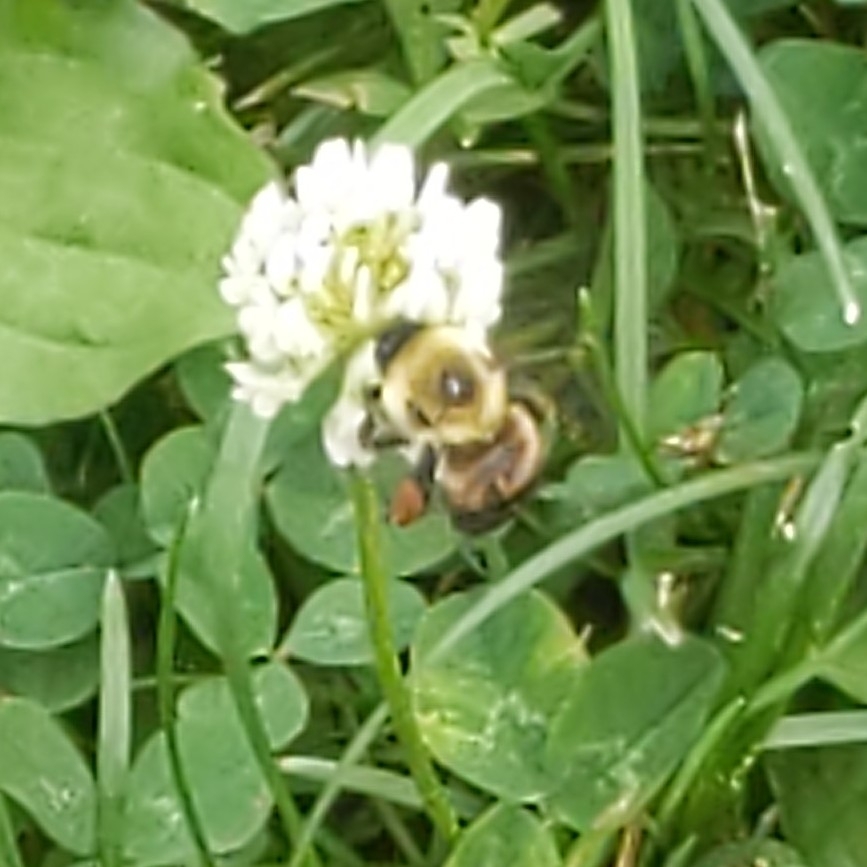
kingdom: Animalia
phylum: Arthropoda
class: Insecta
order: Hymenoptera
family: Apidae
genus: Bombus
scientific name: Bombus griseocollis
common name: Brown-belted bumble bee
